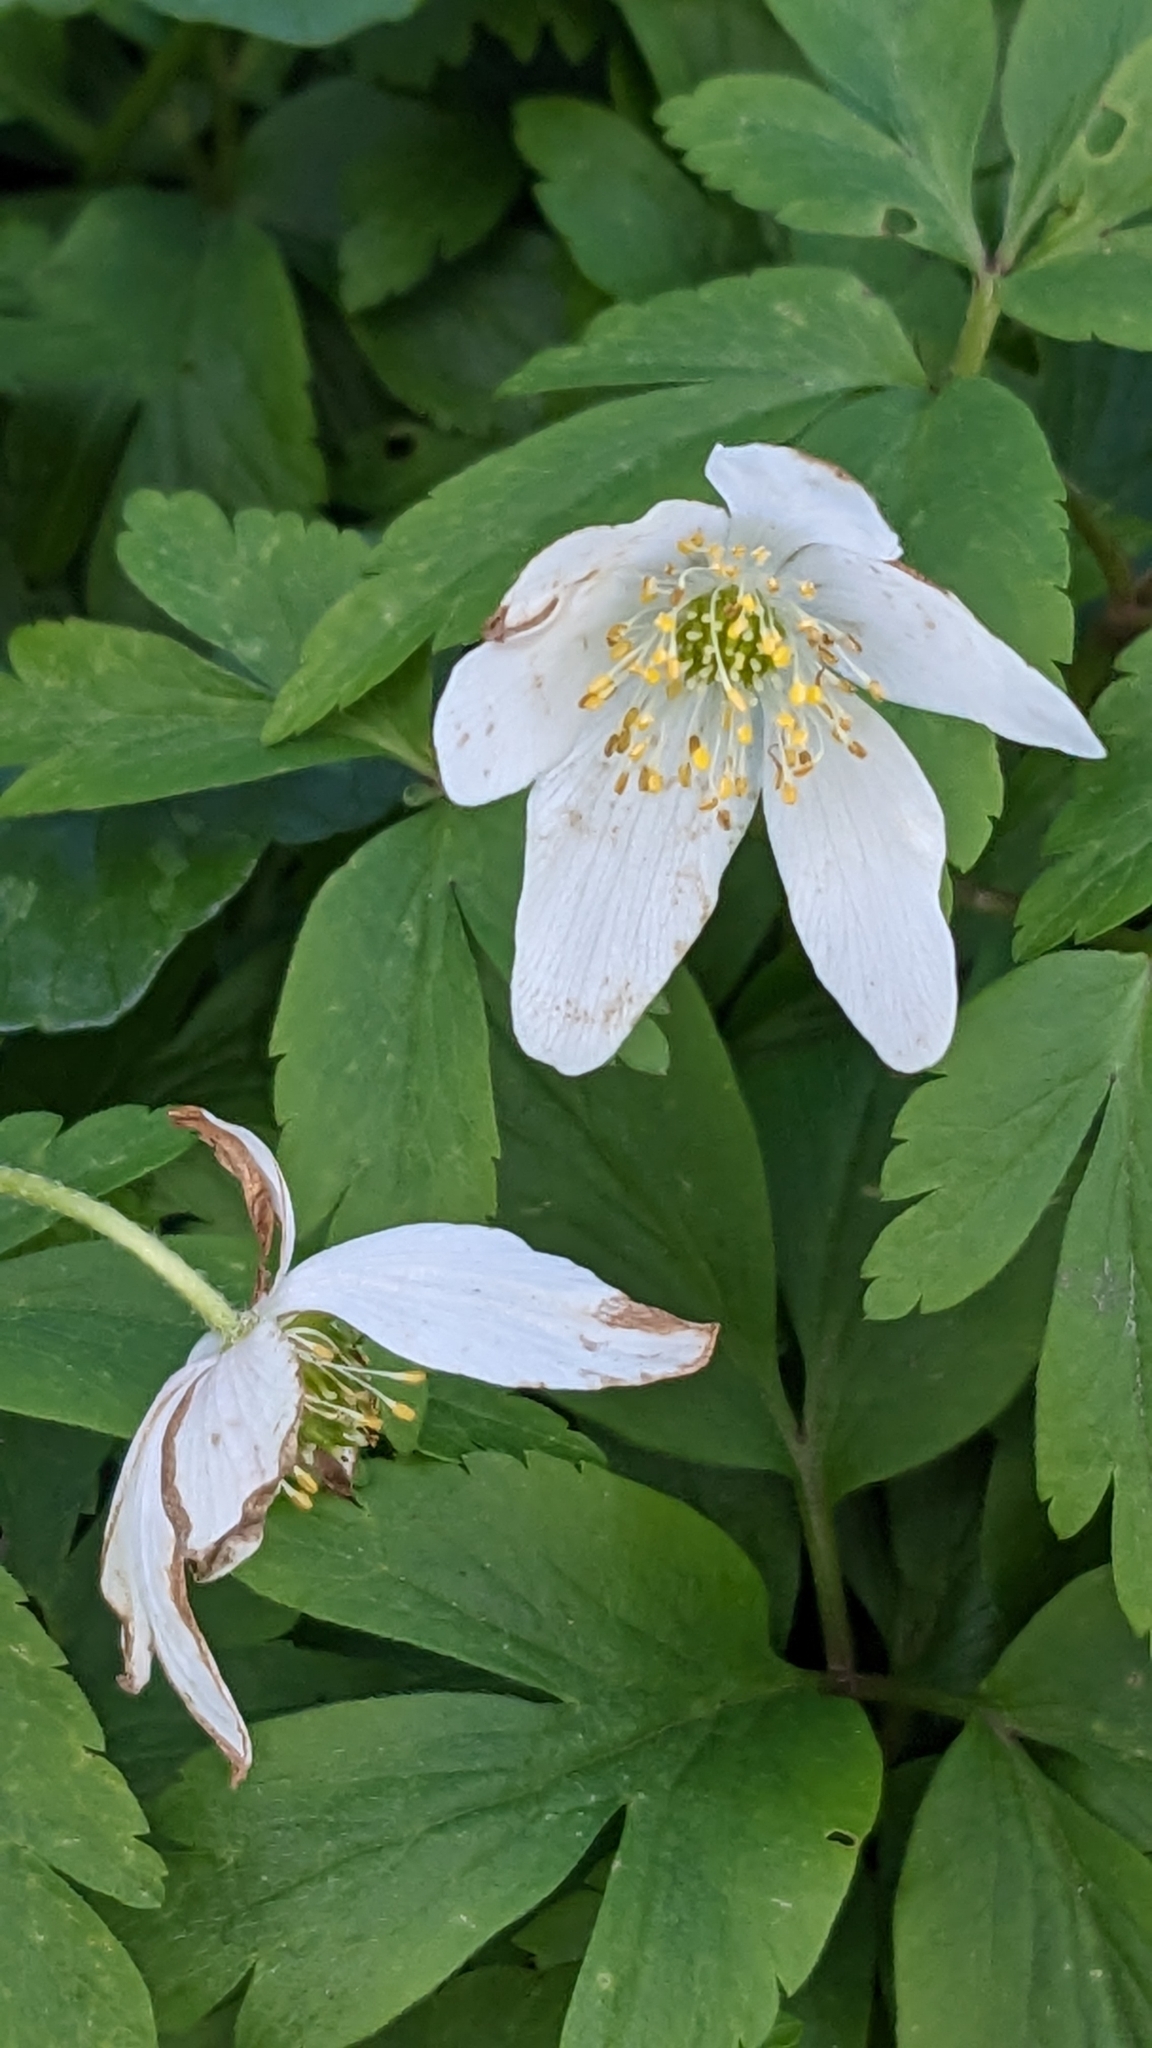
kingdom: Plantae
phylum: Tracheophyta
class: Magnoliopsida
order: Ranunculales
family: Ranunculaceae
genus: Anemone
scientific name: Anemone nemorosa
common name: Wood anemone
